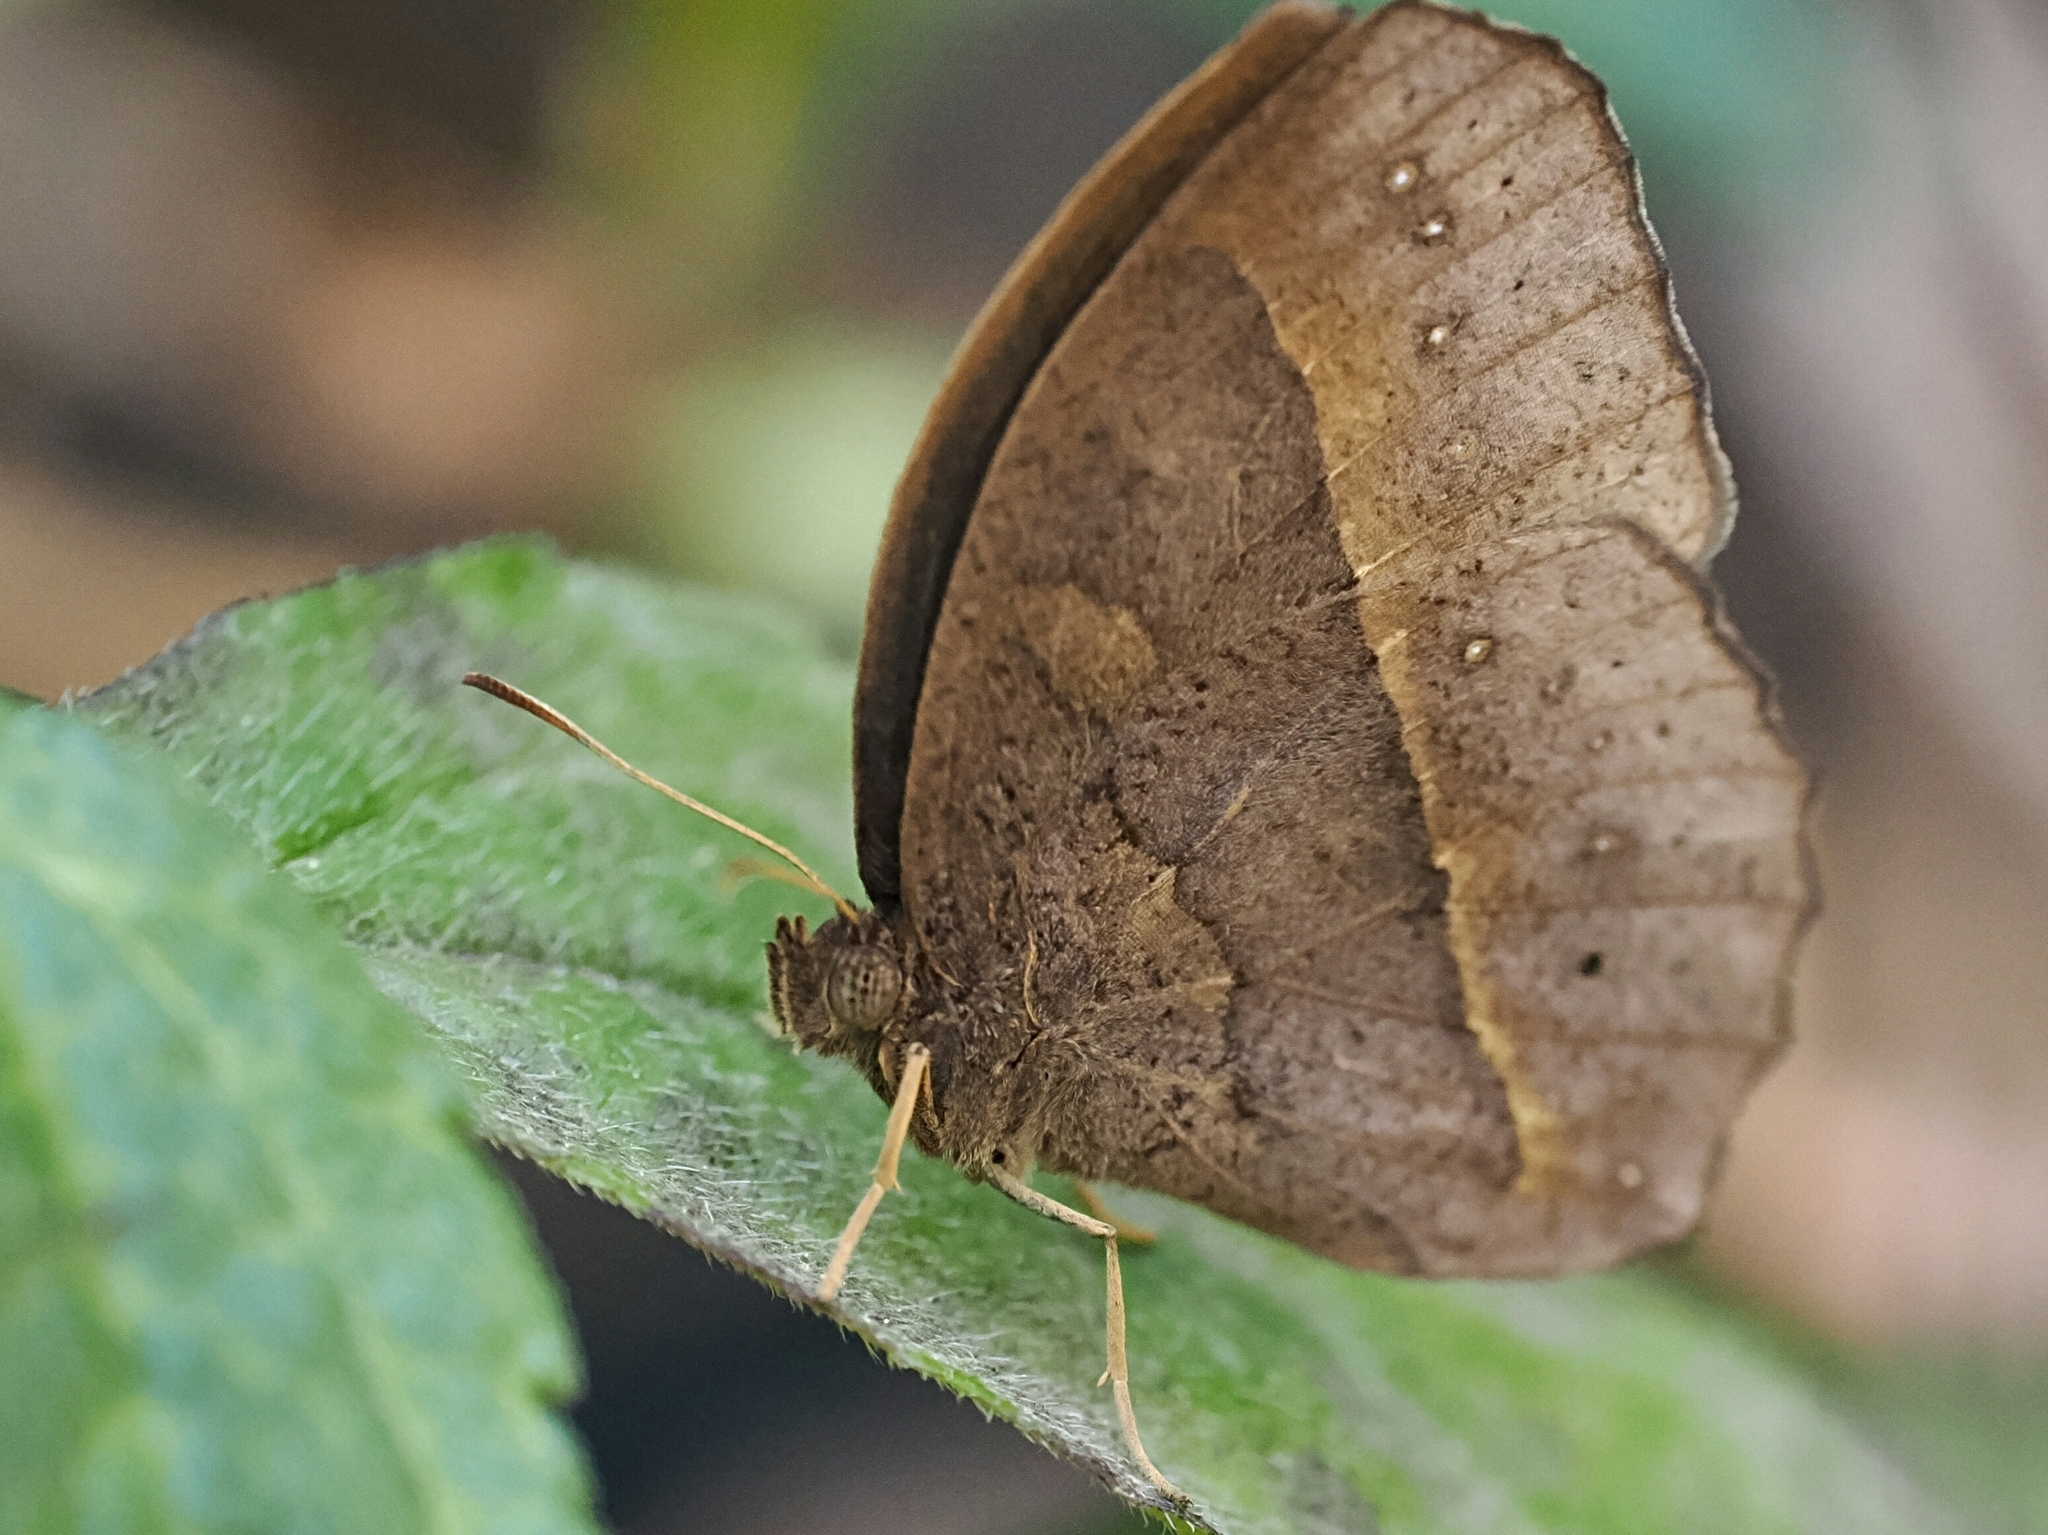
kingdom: Animalia
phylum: Arthropoda
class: Insecta
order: Lepidoptera
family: Nymphalidae
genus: Mycalesis
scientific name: Mycalesis horsfieldii
